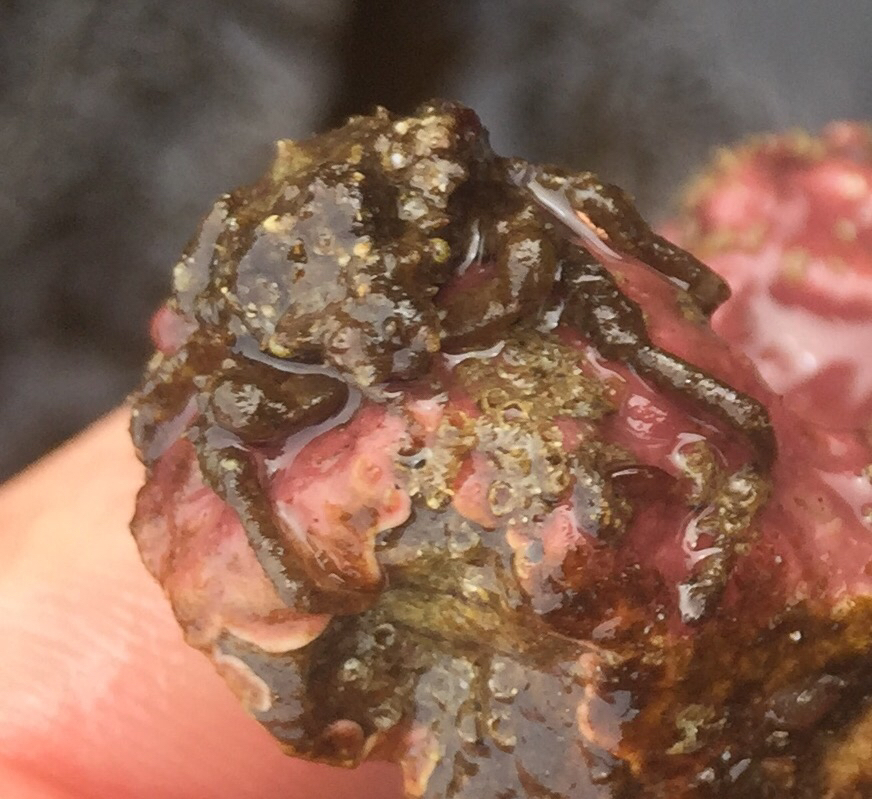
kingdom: Animalia
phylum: Arthropoda
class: Malacostraca
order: Decapoda
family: Epialtidae
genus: Pugettia
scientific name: Pugettia richii
